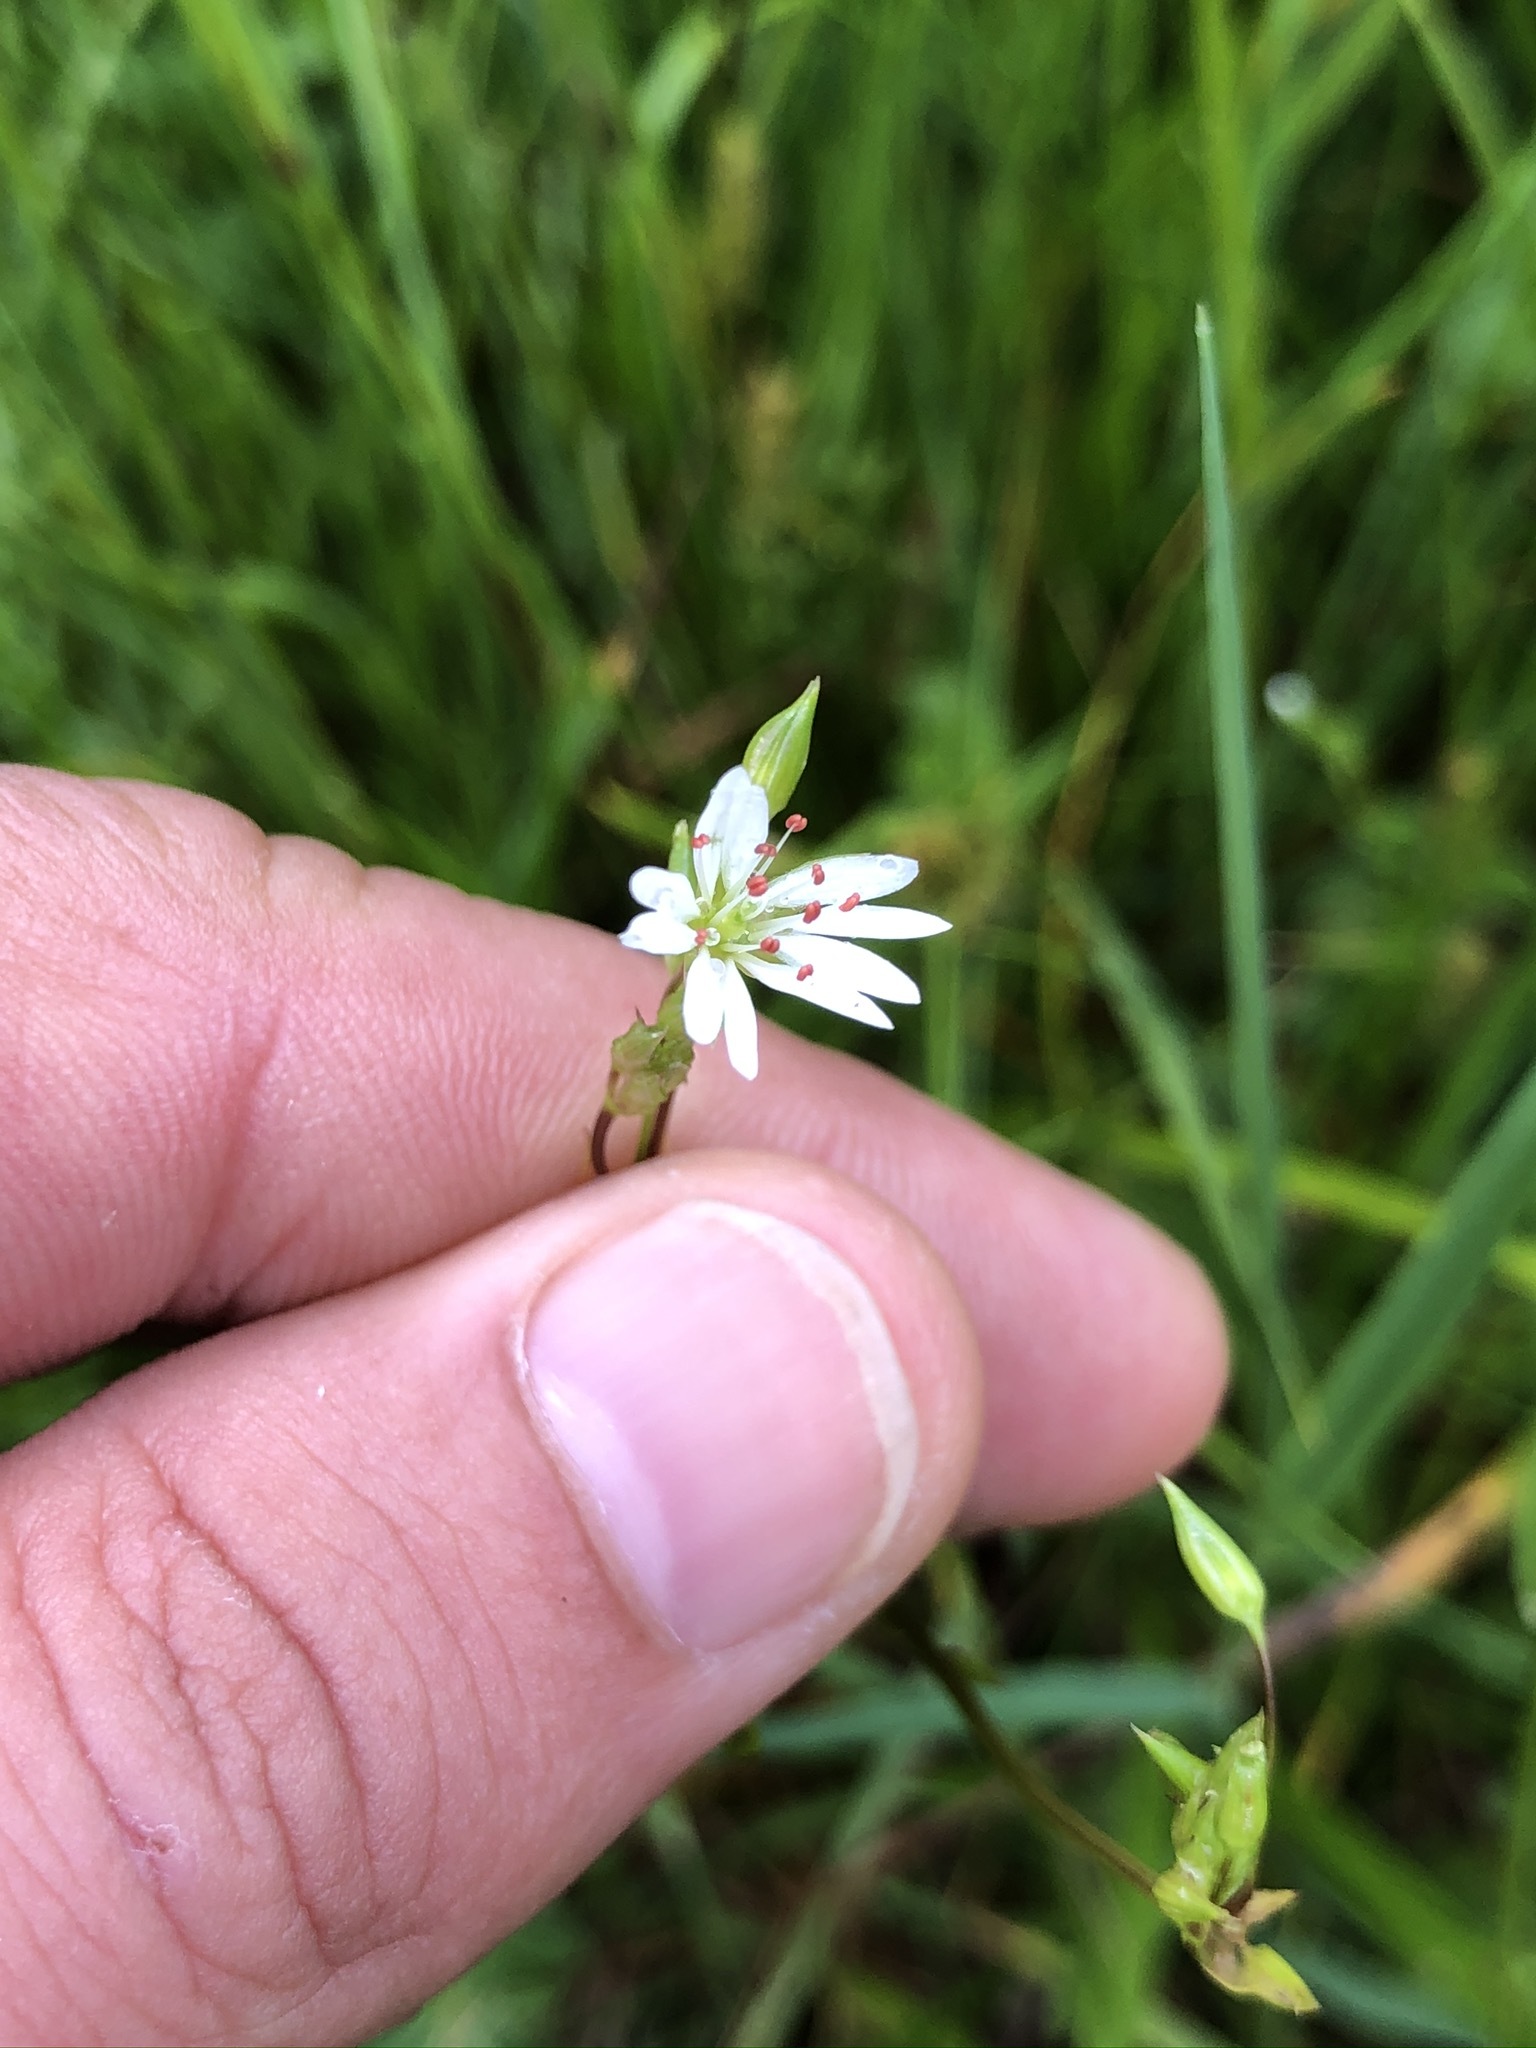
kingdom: Plantae
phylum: Tracheophyta
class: Magnoliopsida
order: Caryophyllales
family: Caryophyllaceae
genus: Stellaria
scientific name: Stellaria graminea
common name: Grass-like starwort
